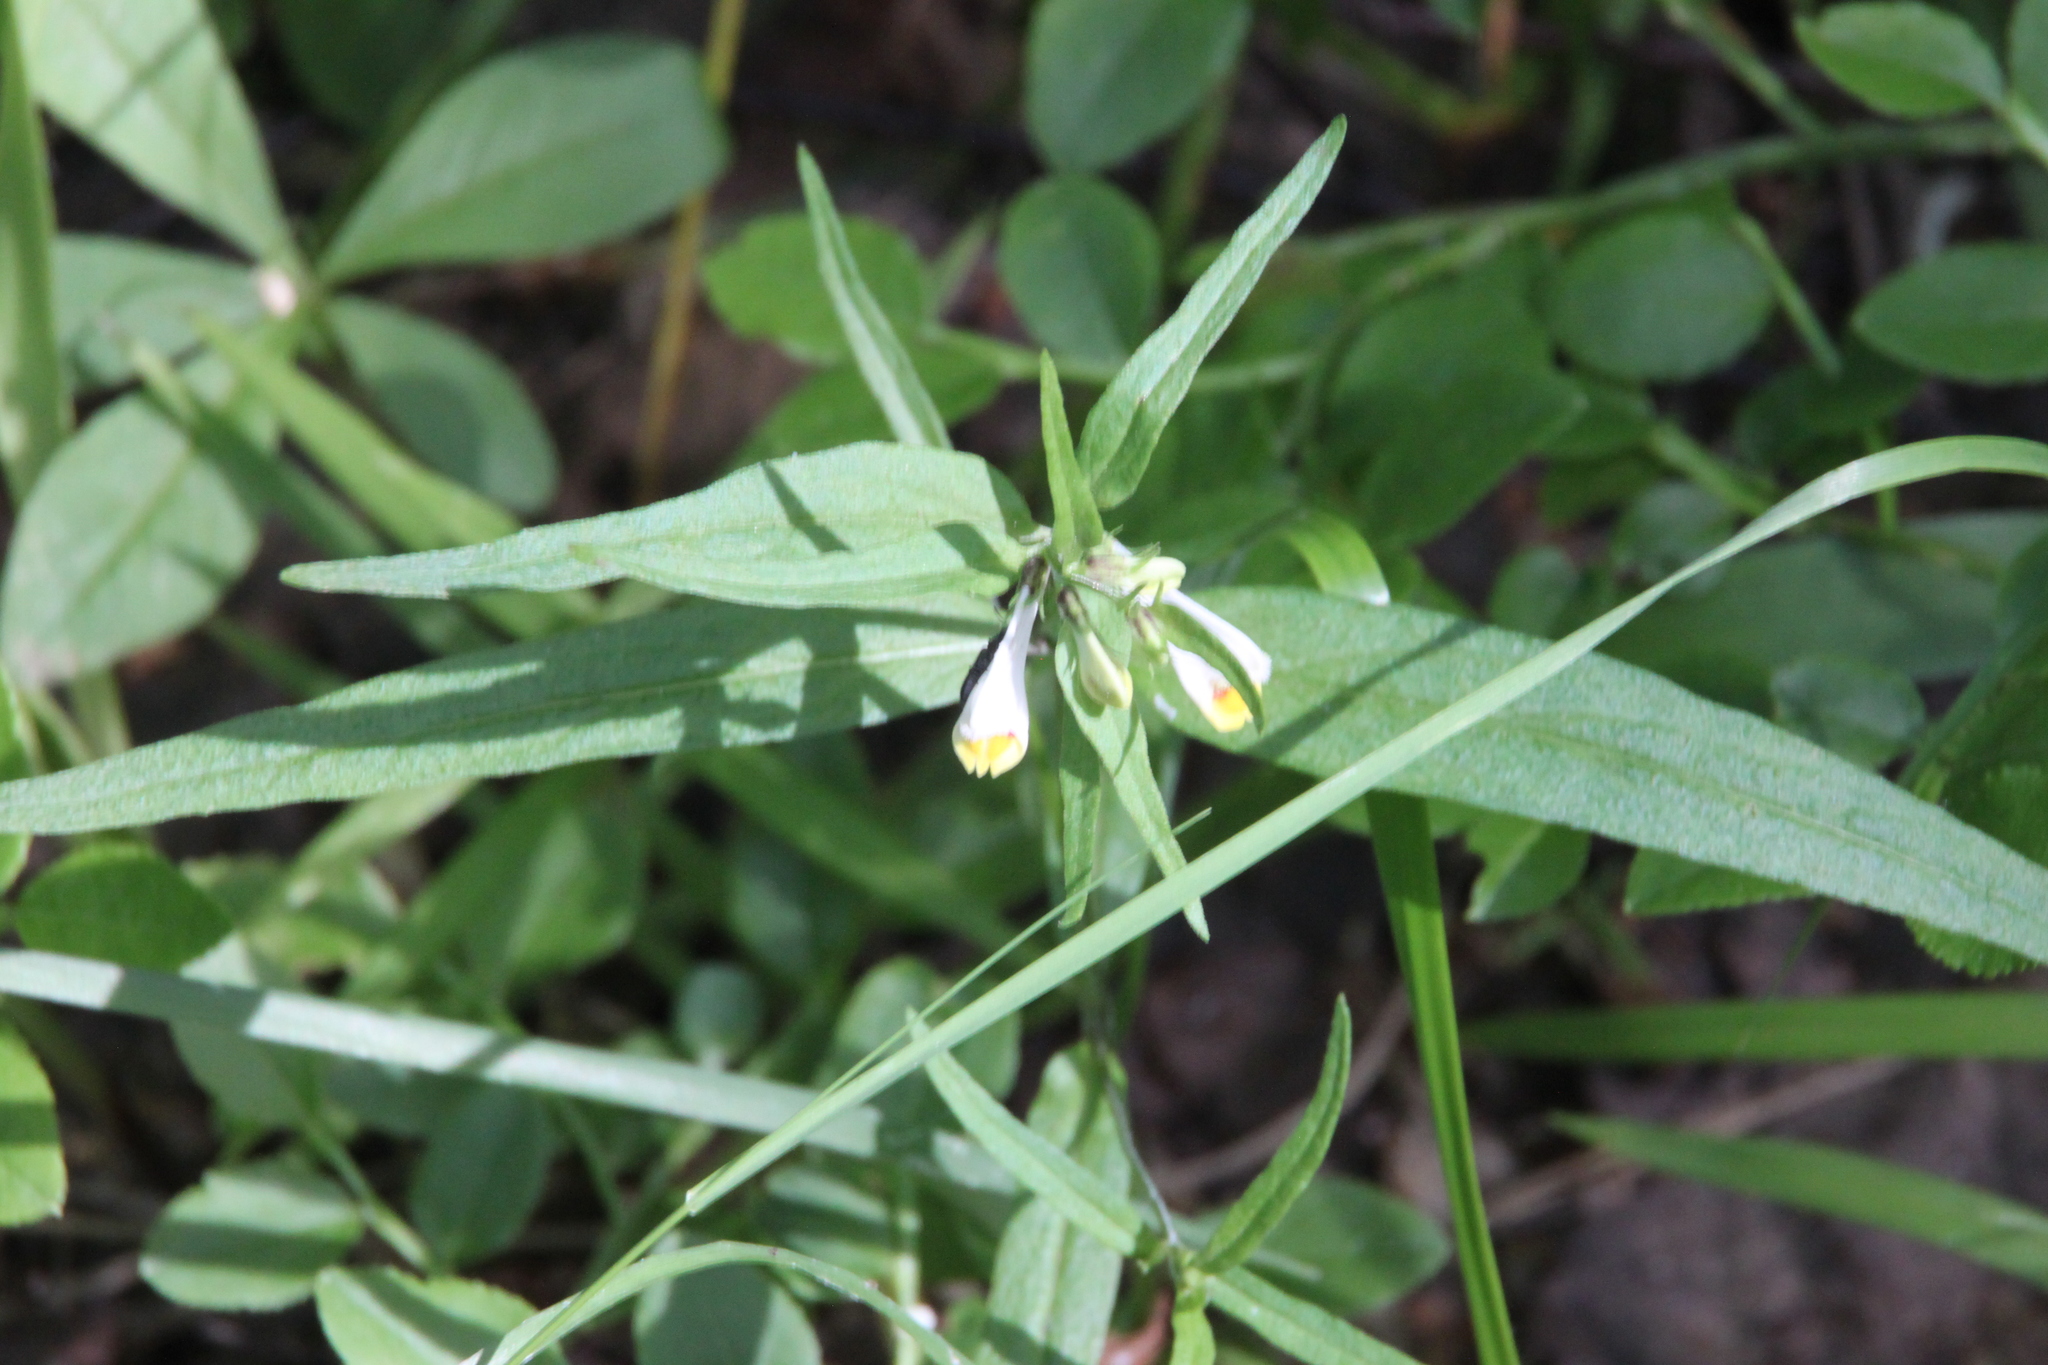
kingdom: Plantae
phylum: Tracheophyta
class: Magnoliopsida
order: Lamiales
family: Orobanchaceae
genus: Melampyrum
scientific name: Melampyrum pratense
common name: Common cow-wheat
